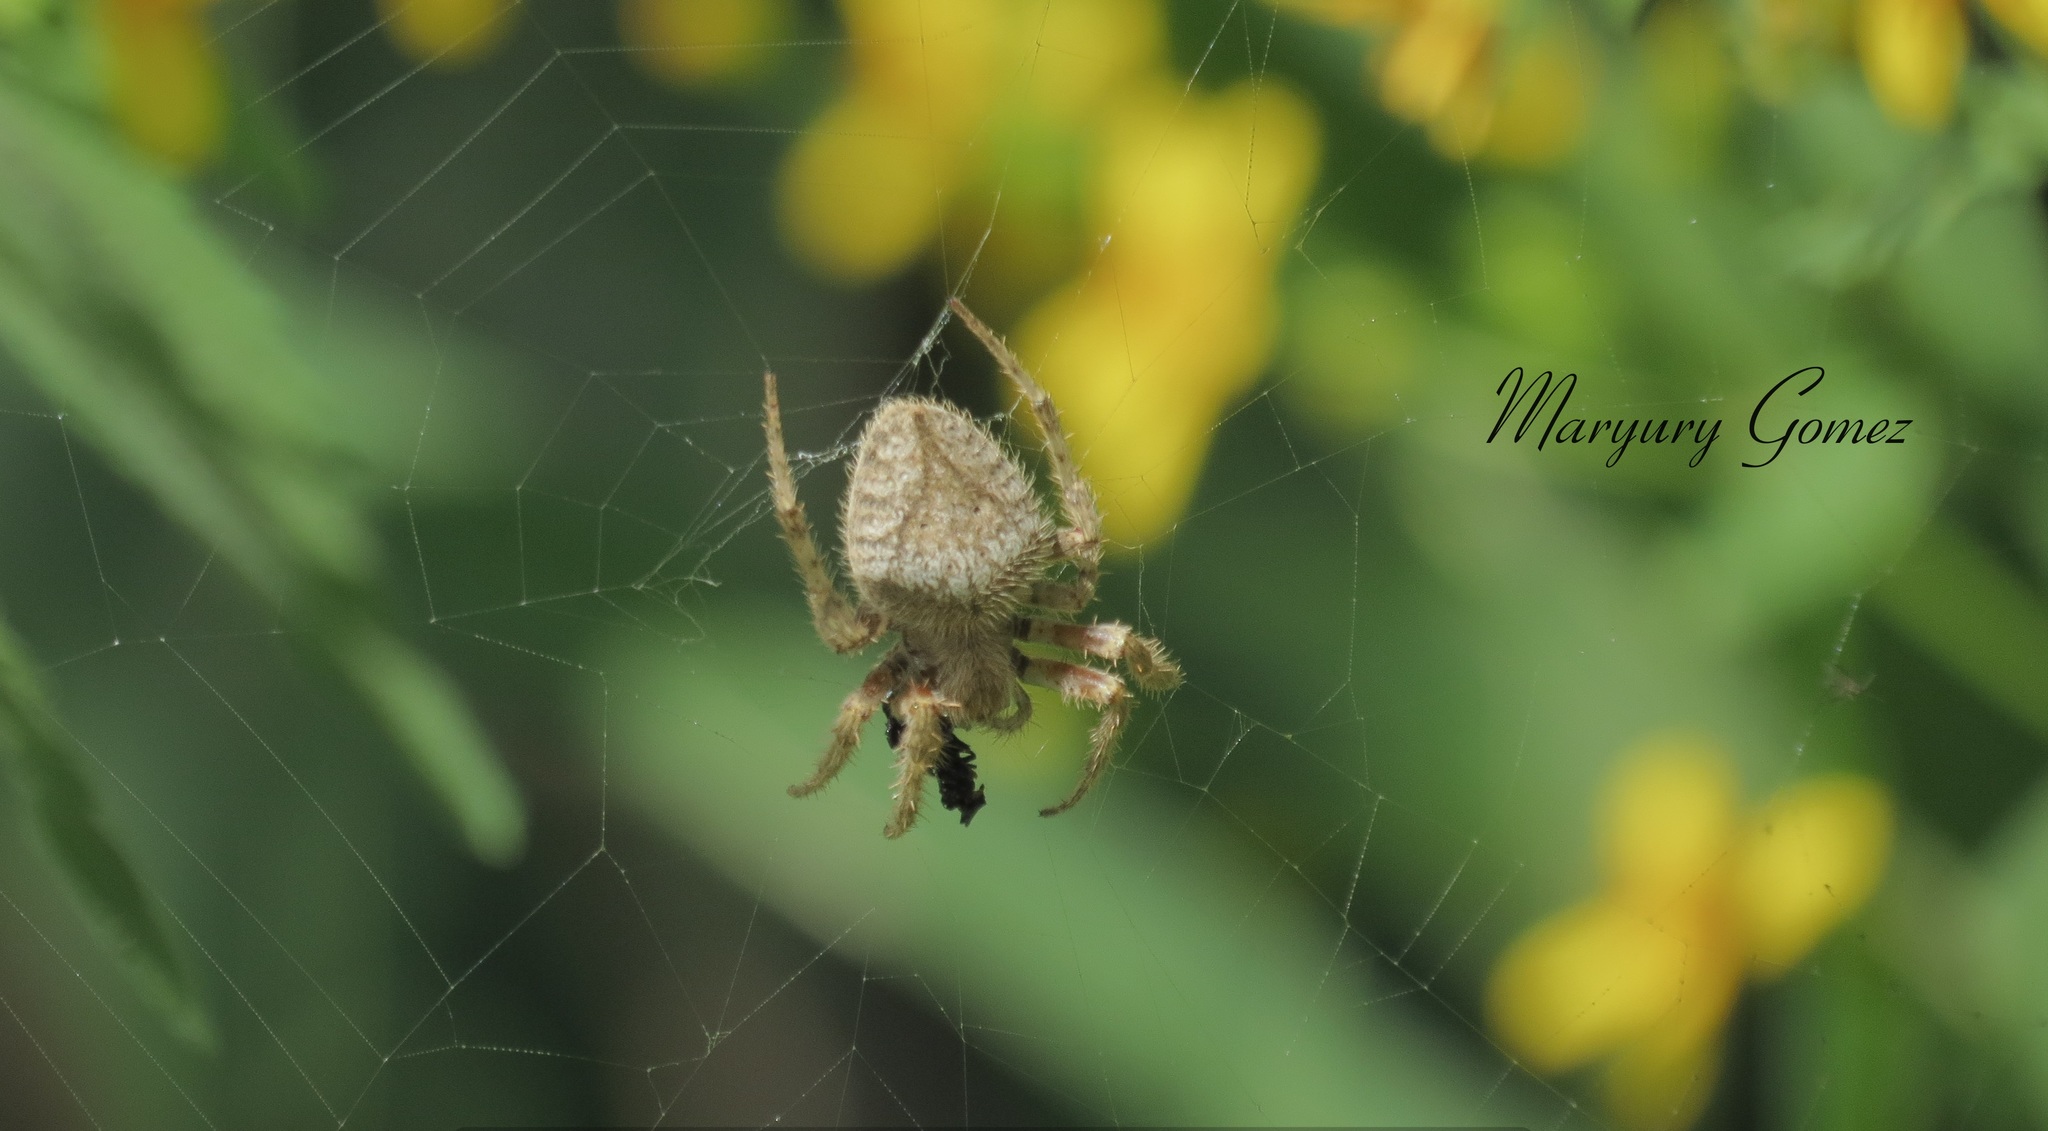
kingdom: Animalia
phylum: Arthropoda
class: Arachnida
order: Araneae
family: Araneidae
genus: Eriophora
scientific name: Eriophora edax
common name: Orb weavers
